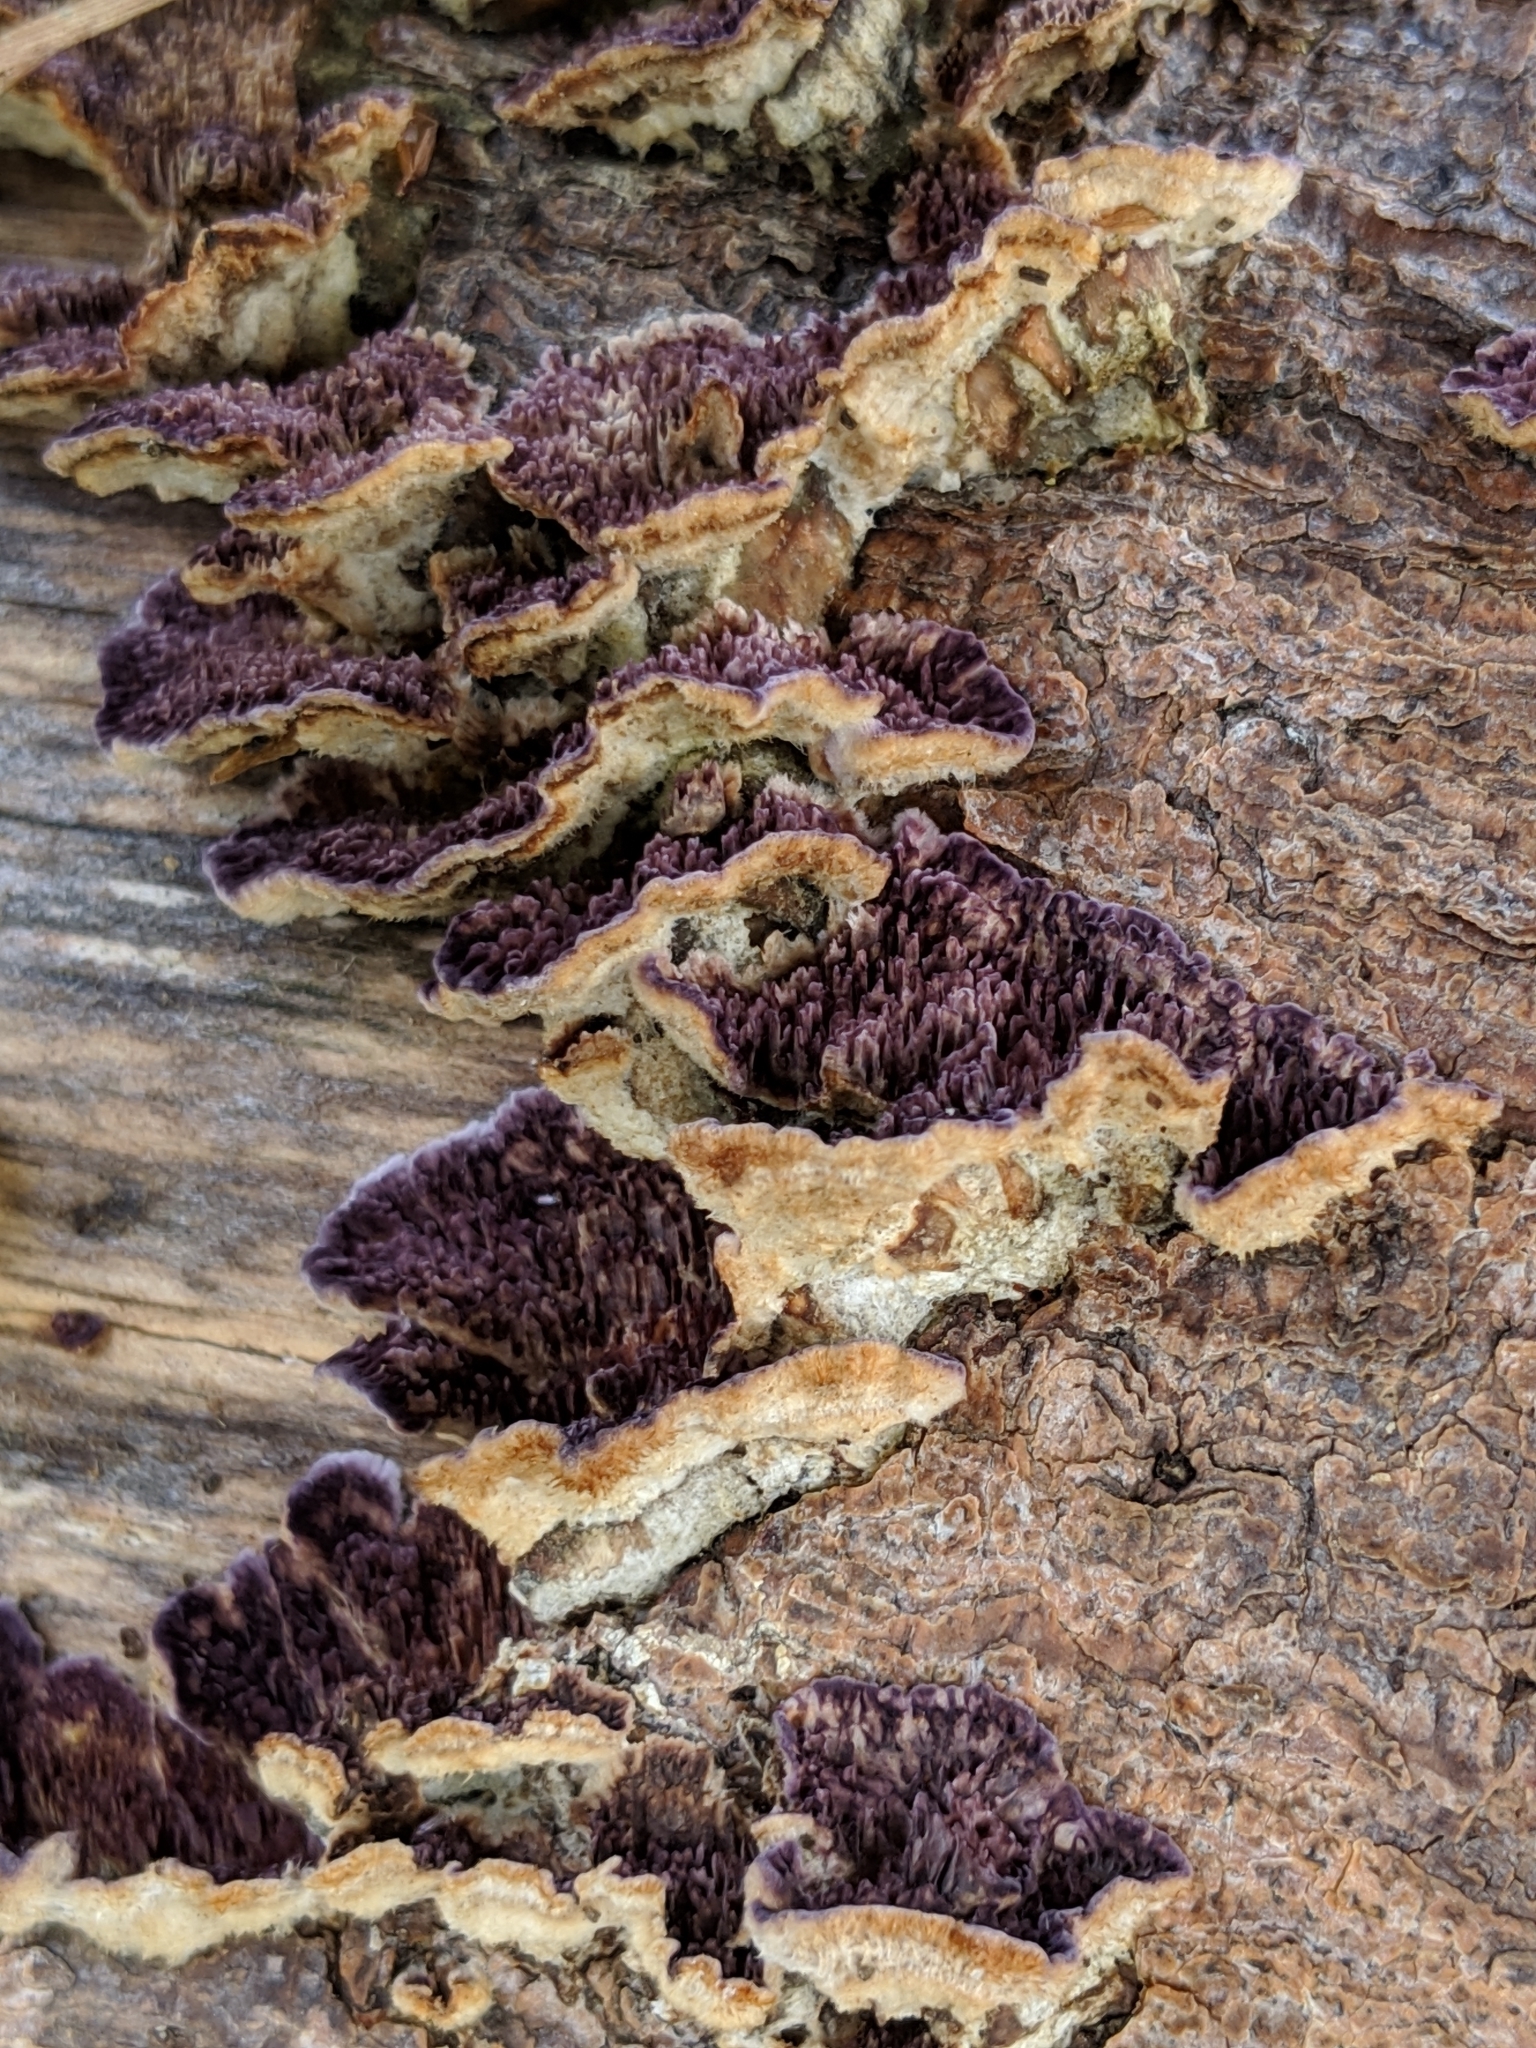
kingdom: Fungi
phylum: Basidiomycota
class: Agaricomycetes
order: Hymenochaetales
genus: Trichaptum
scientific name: Trichaptum fuscoviolaceum
